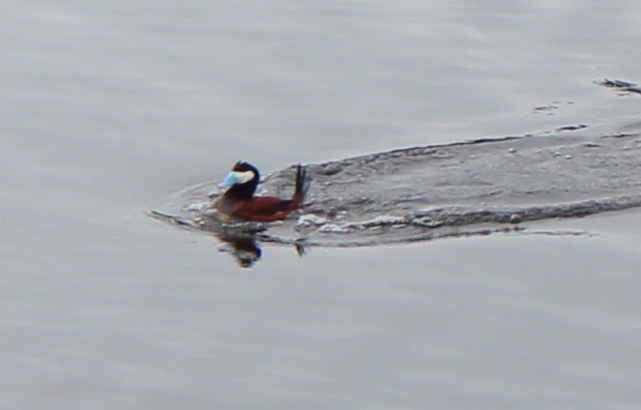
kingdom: Animalia
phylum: Chordata
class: Aves
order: Anseriformes
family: Anatidae
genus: Oxyura
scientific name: Oxyura jamaicensis
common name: Ruddy duck
